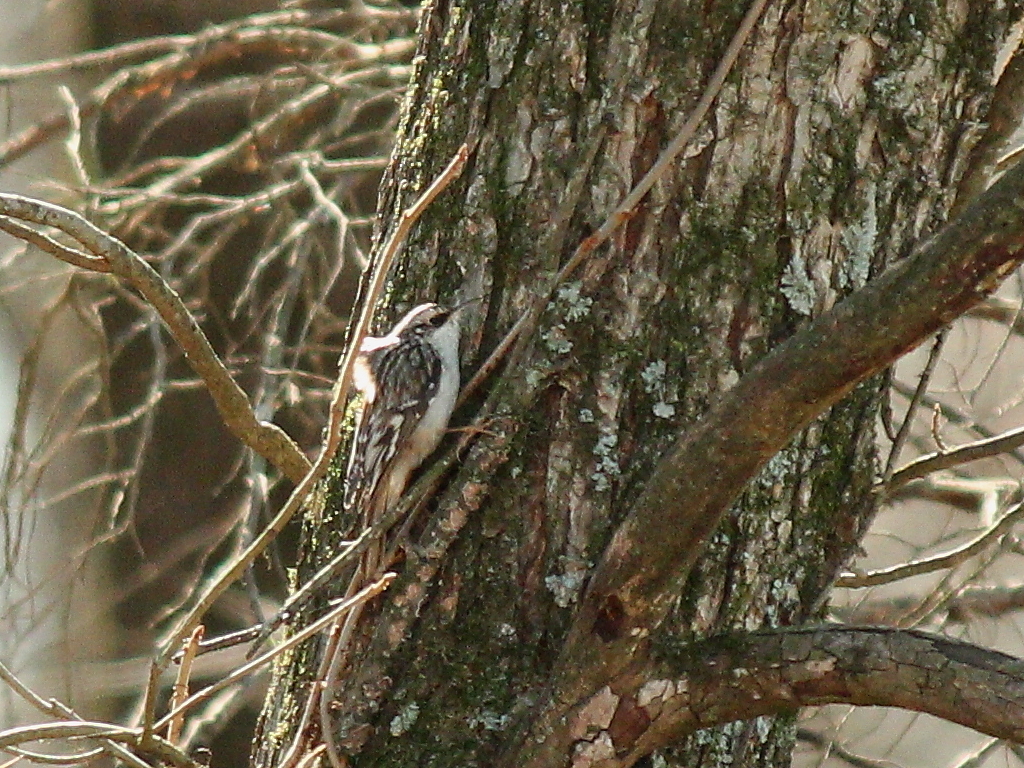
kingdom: Animalia
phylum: Chordata
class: Aves
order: Passeriformes
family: Certhiidae
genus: Certhia
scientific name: Certhia americana
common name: Brown creeper
